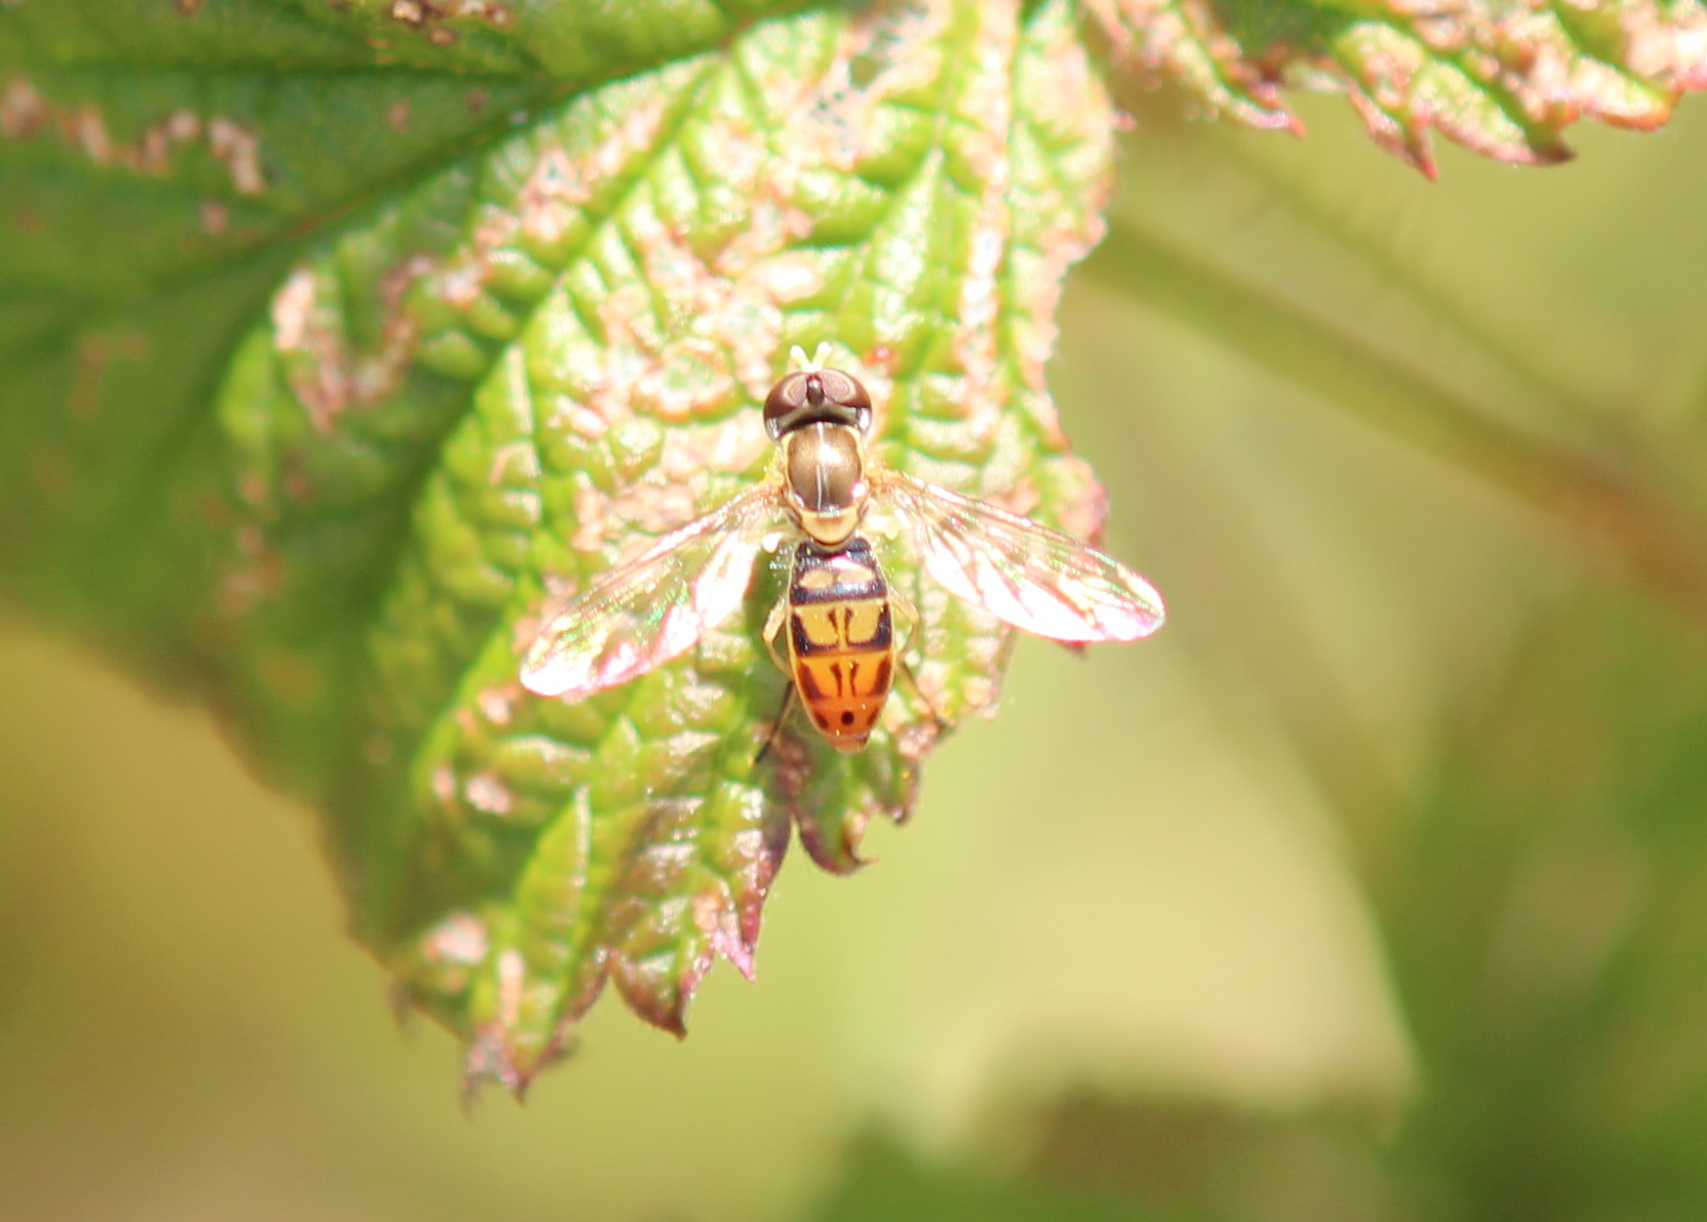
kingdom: Animalia
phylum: Arthropoda
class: Insecta
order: Diptera
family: Syrphidae
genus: Toxomerus
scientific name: Toxomerus marginatus
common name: Syrphid fly
